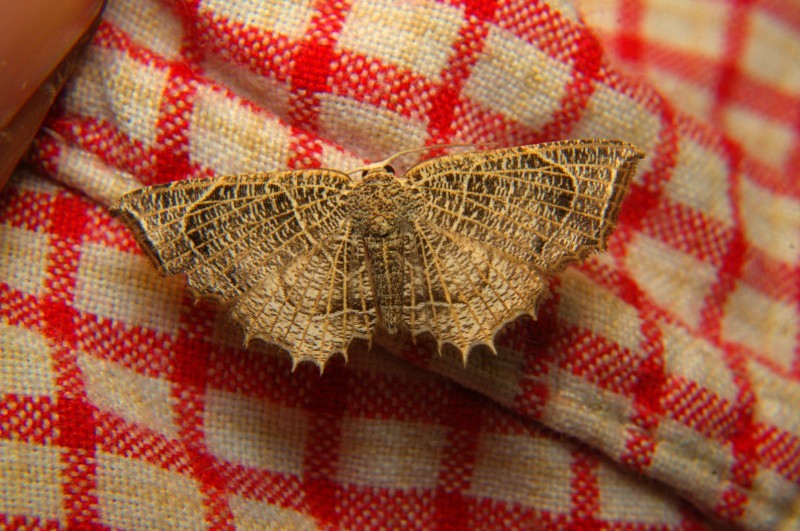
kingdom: Animalia
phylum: Arthropoda
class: Insecta
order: Lepidoptera
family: Uraniidae
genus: Epiplema
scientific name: Epiplema
